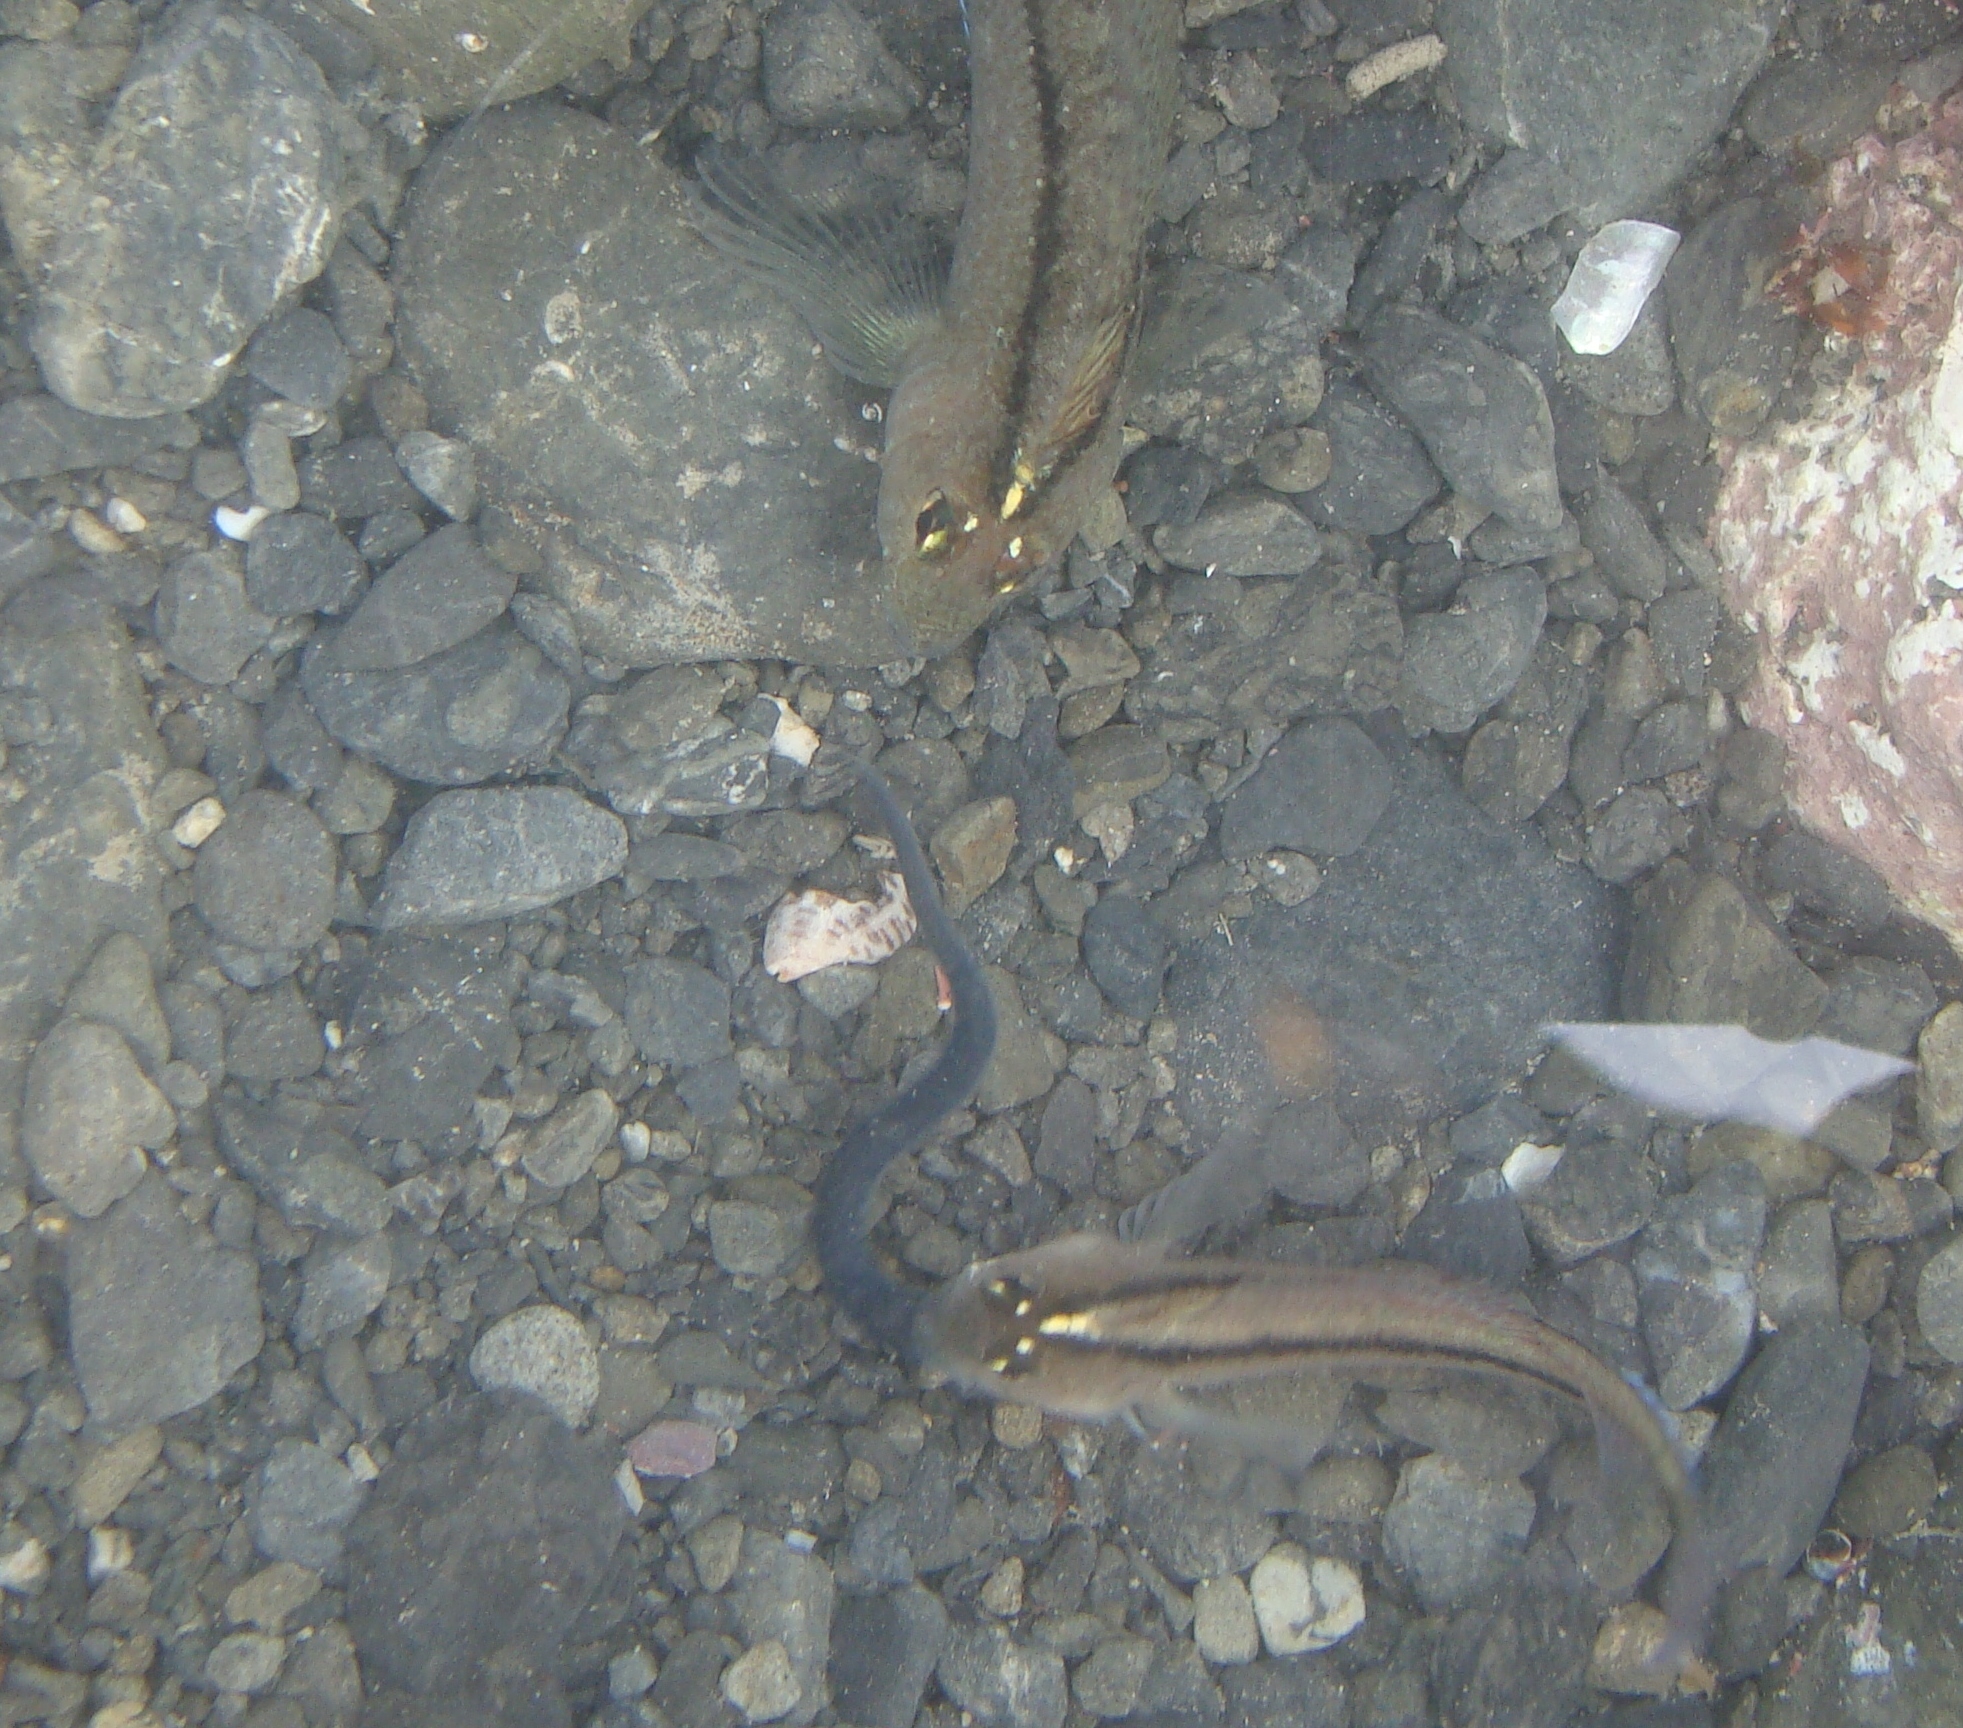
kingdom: Animalia
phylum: Chordata
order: Perciformes
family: Tripterygiidae
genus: Forsterygion
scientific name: Forsterygion lapillum
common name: Common triplefin
